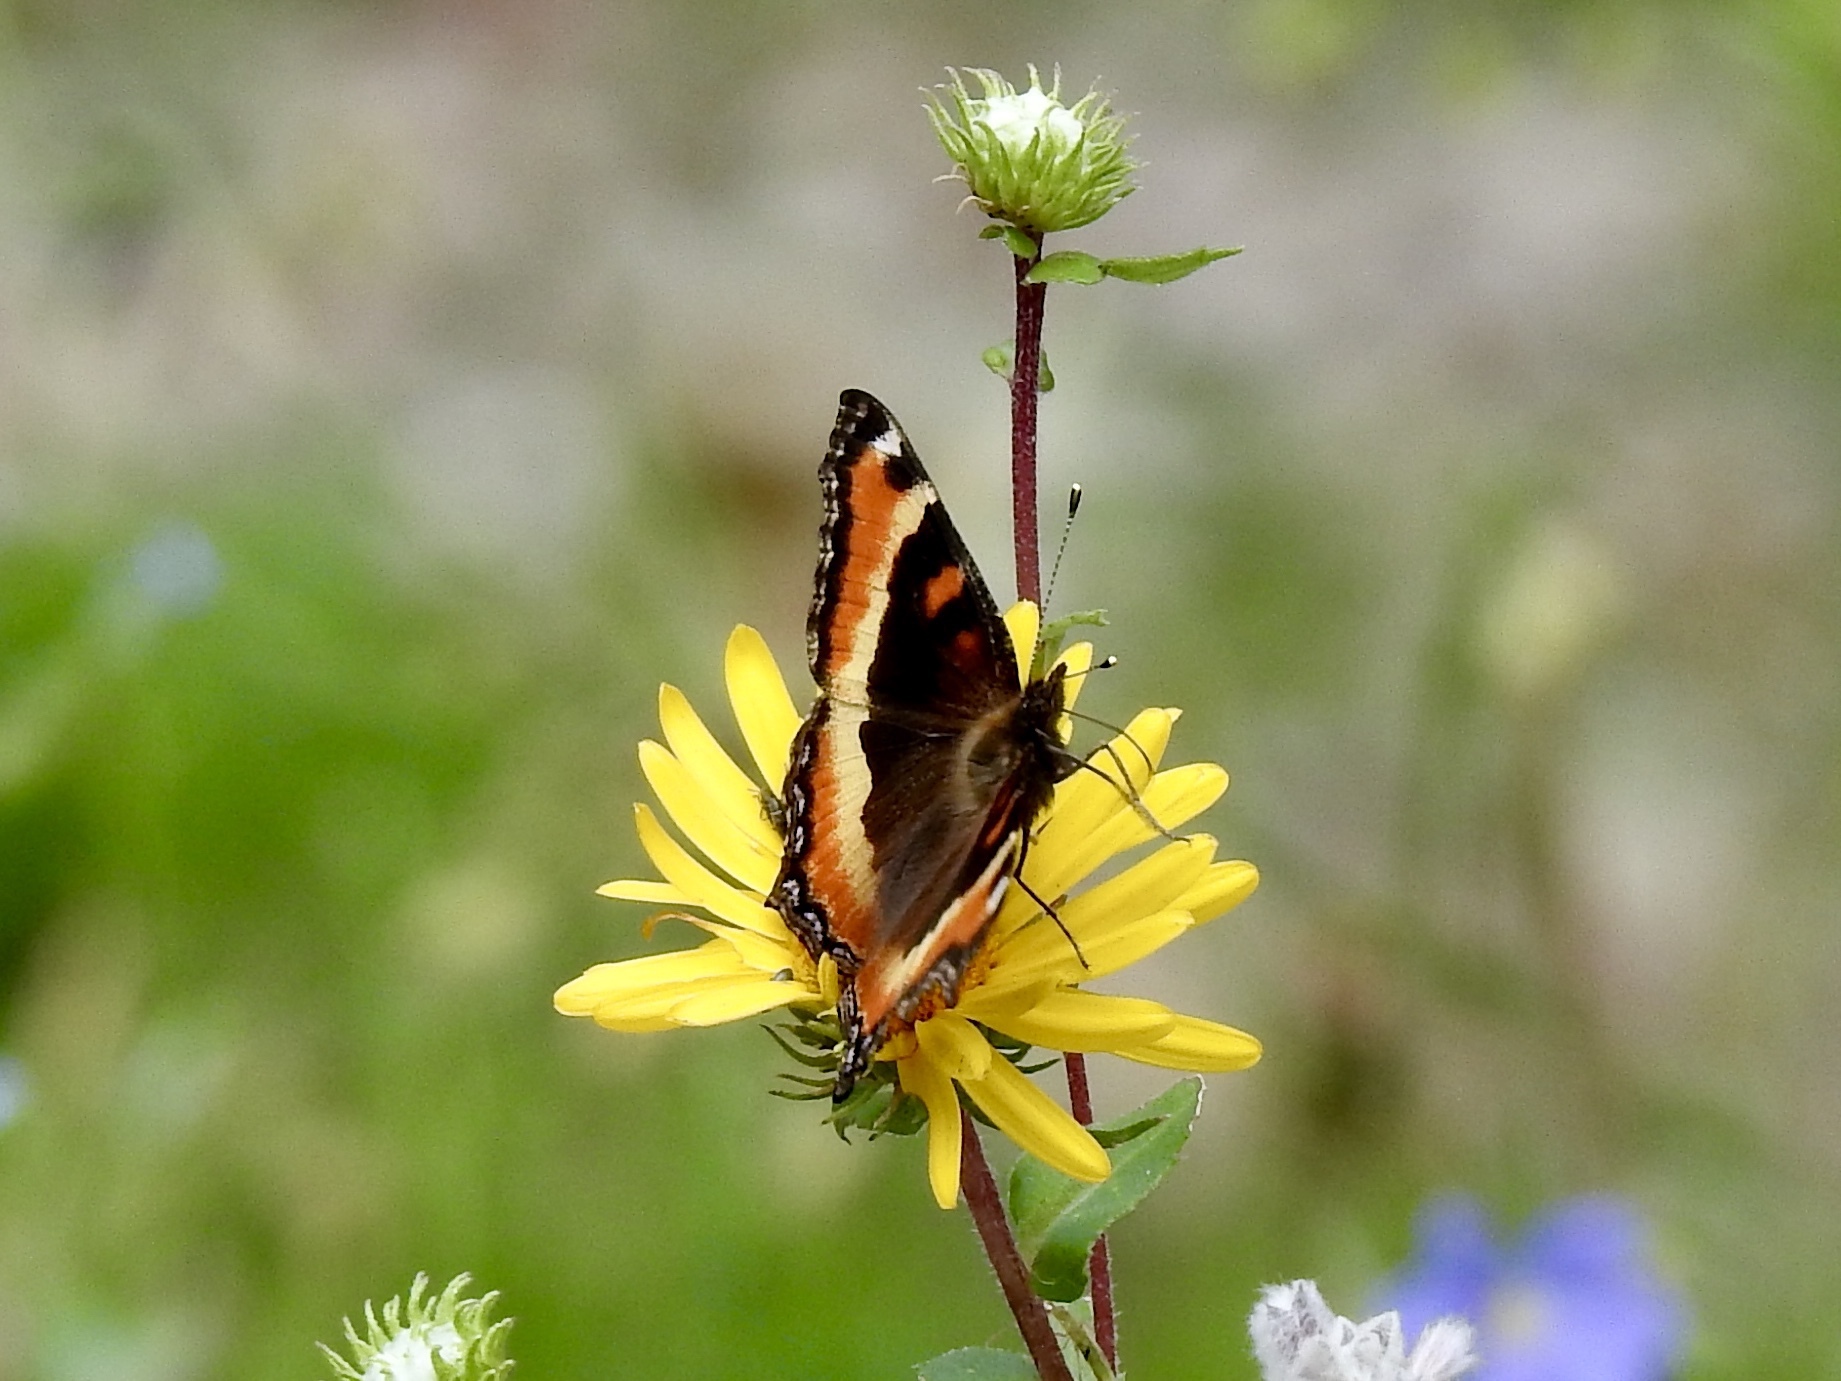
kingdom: Animalia
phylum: Arthropoda
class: Insecta
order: Lepidoptera
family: Nymphalidae
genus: Aglais
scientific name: Aglais milberti
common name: Milbert's tortoiseshell
